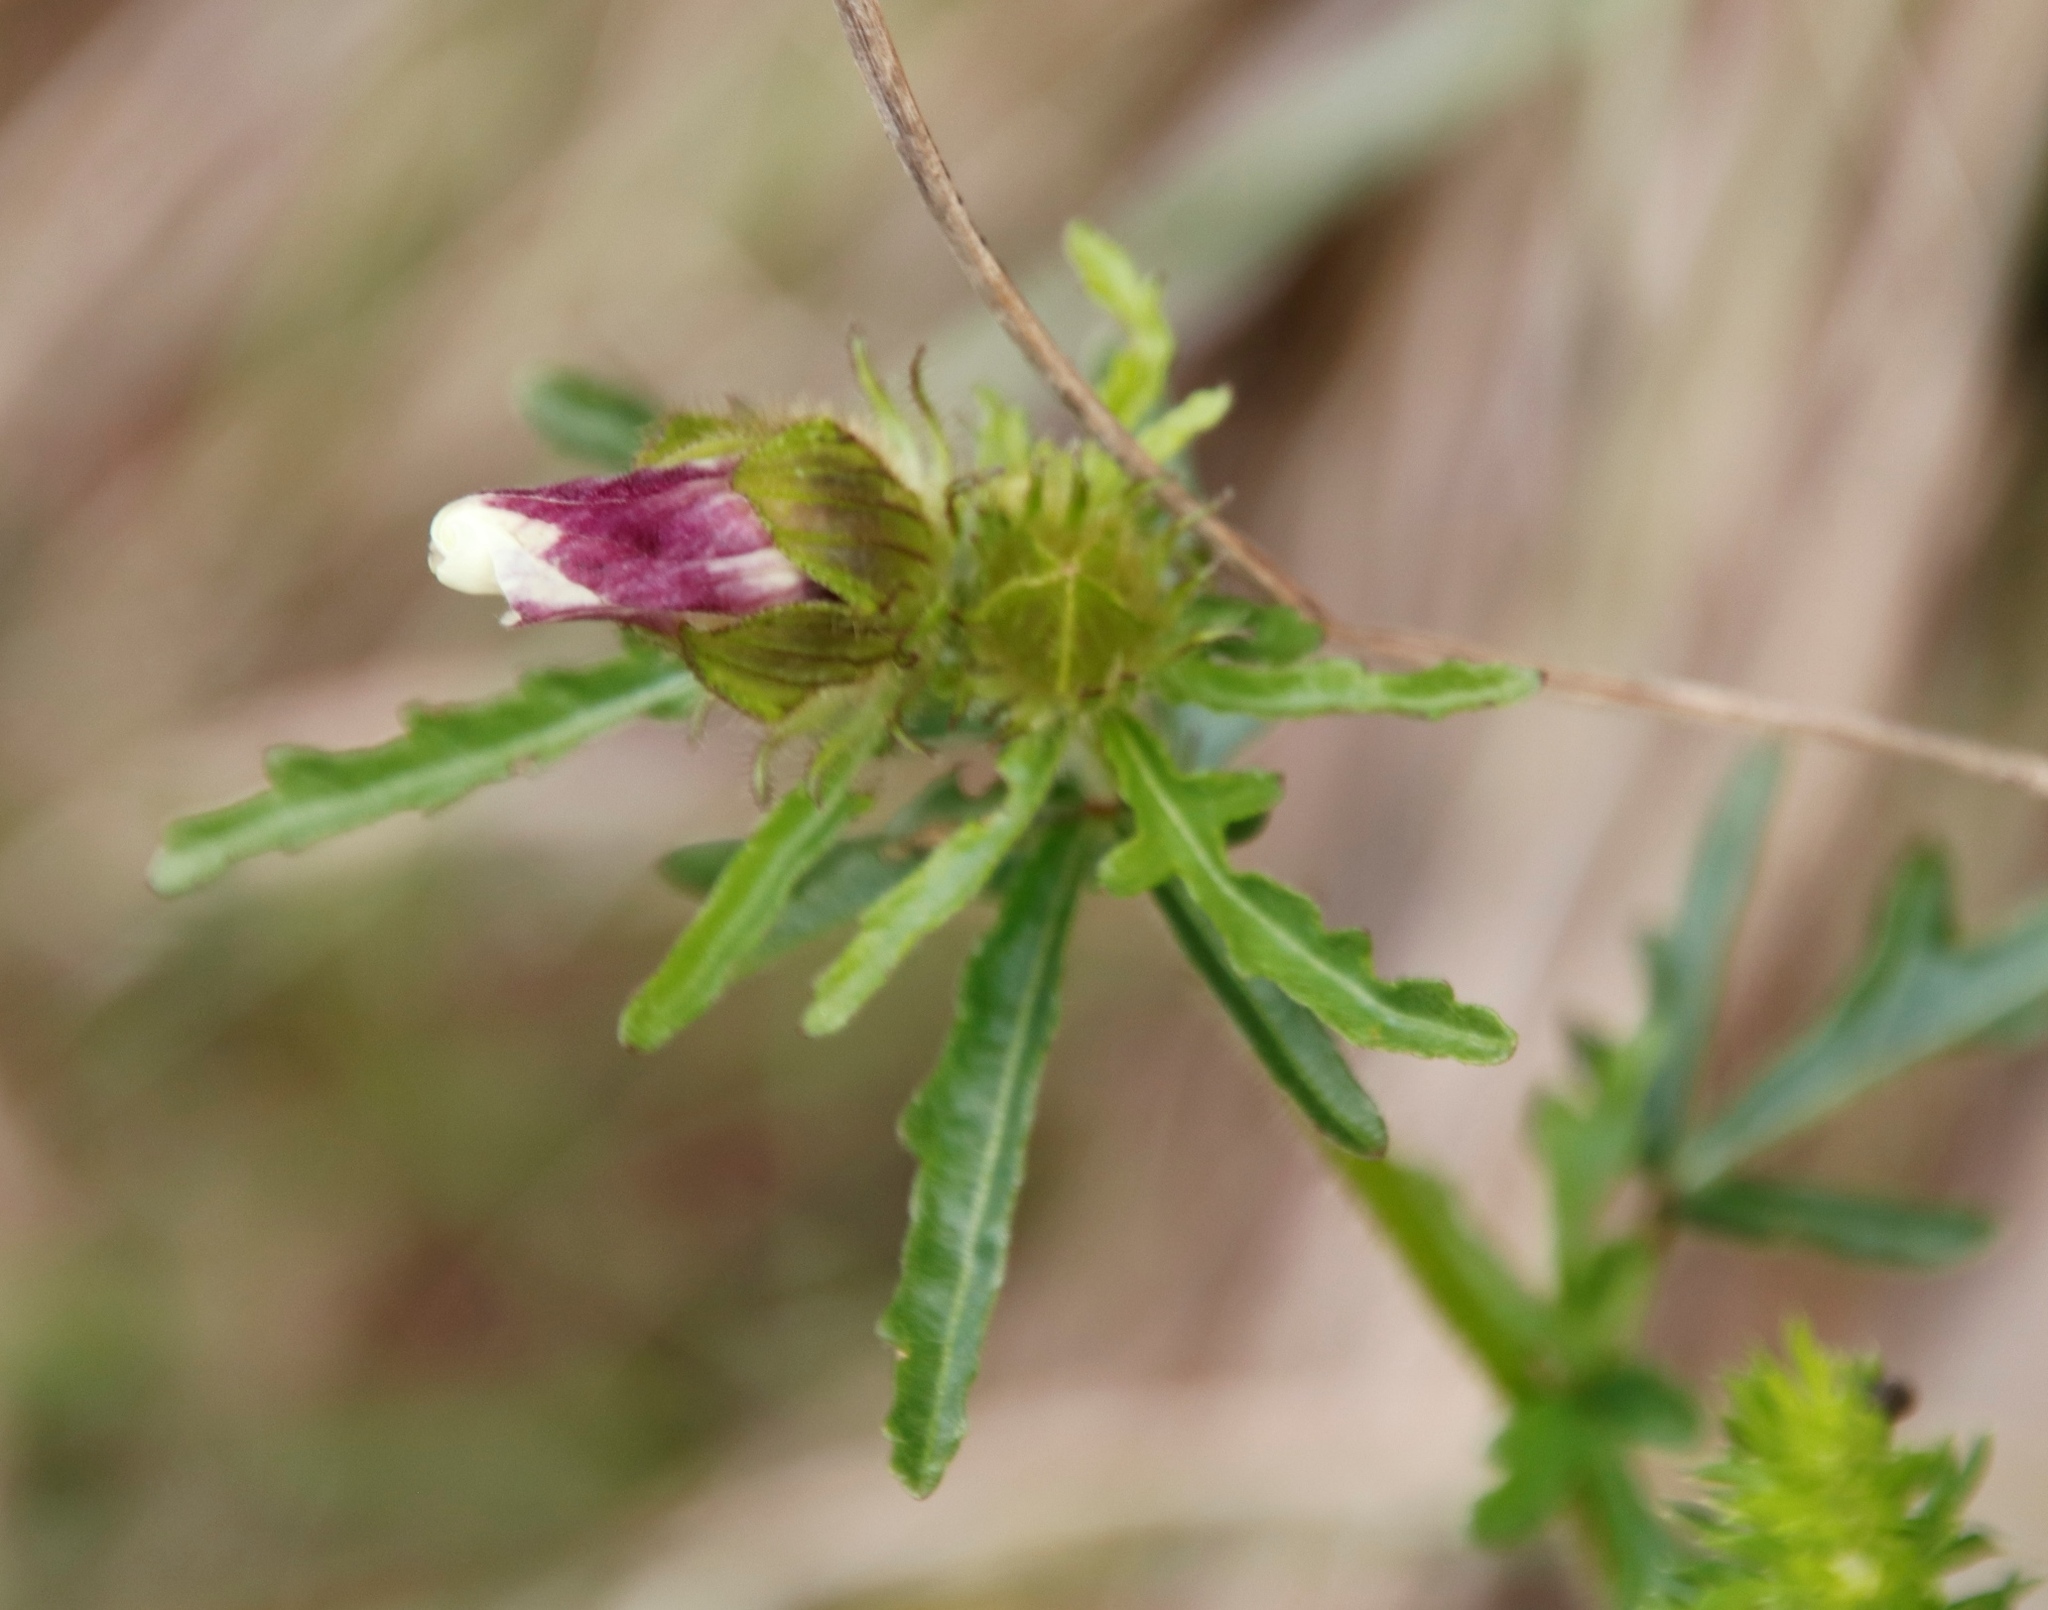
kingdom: Plantae
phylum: Tracheophyta
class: Magnoliopsida
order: Malvales
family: Malvaceae
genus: Hibiscus
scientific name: Hibiscus trionum
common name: Bladder ketmia
